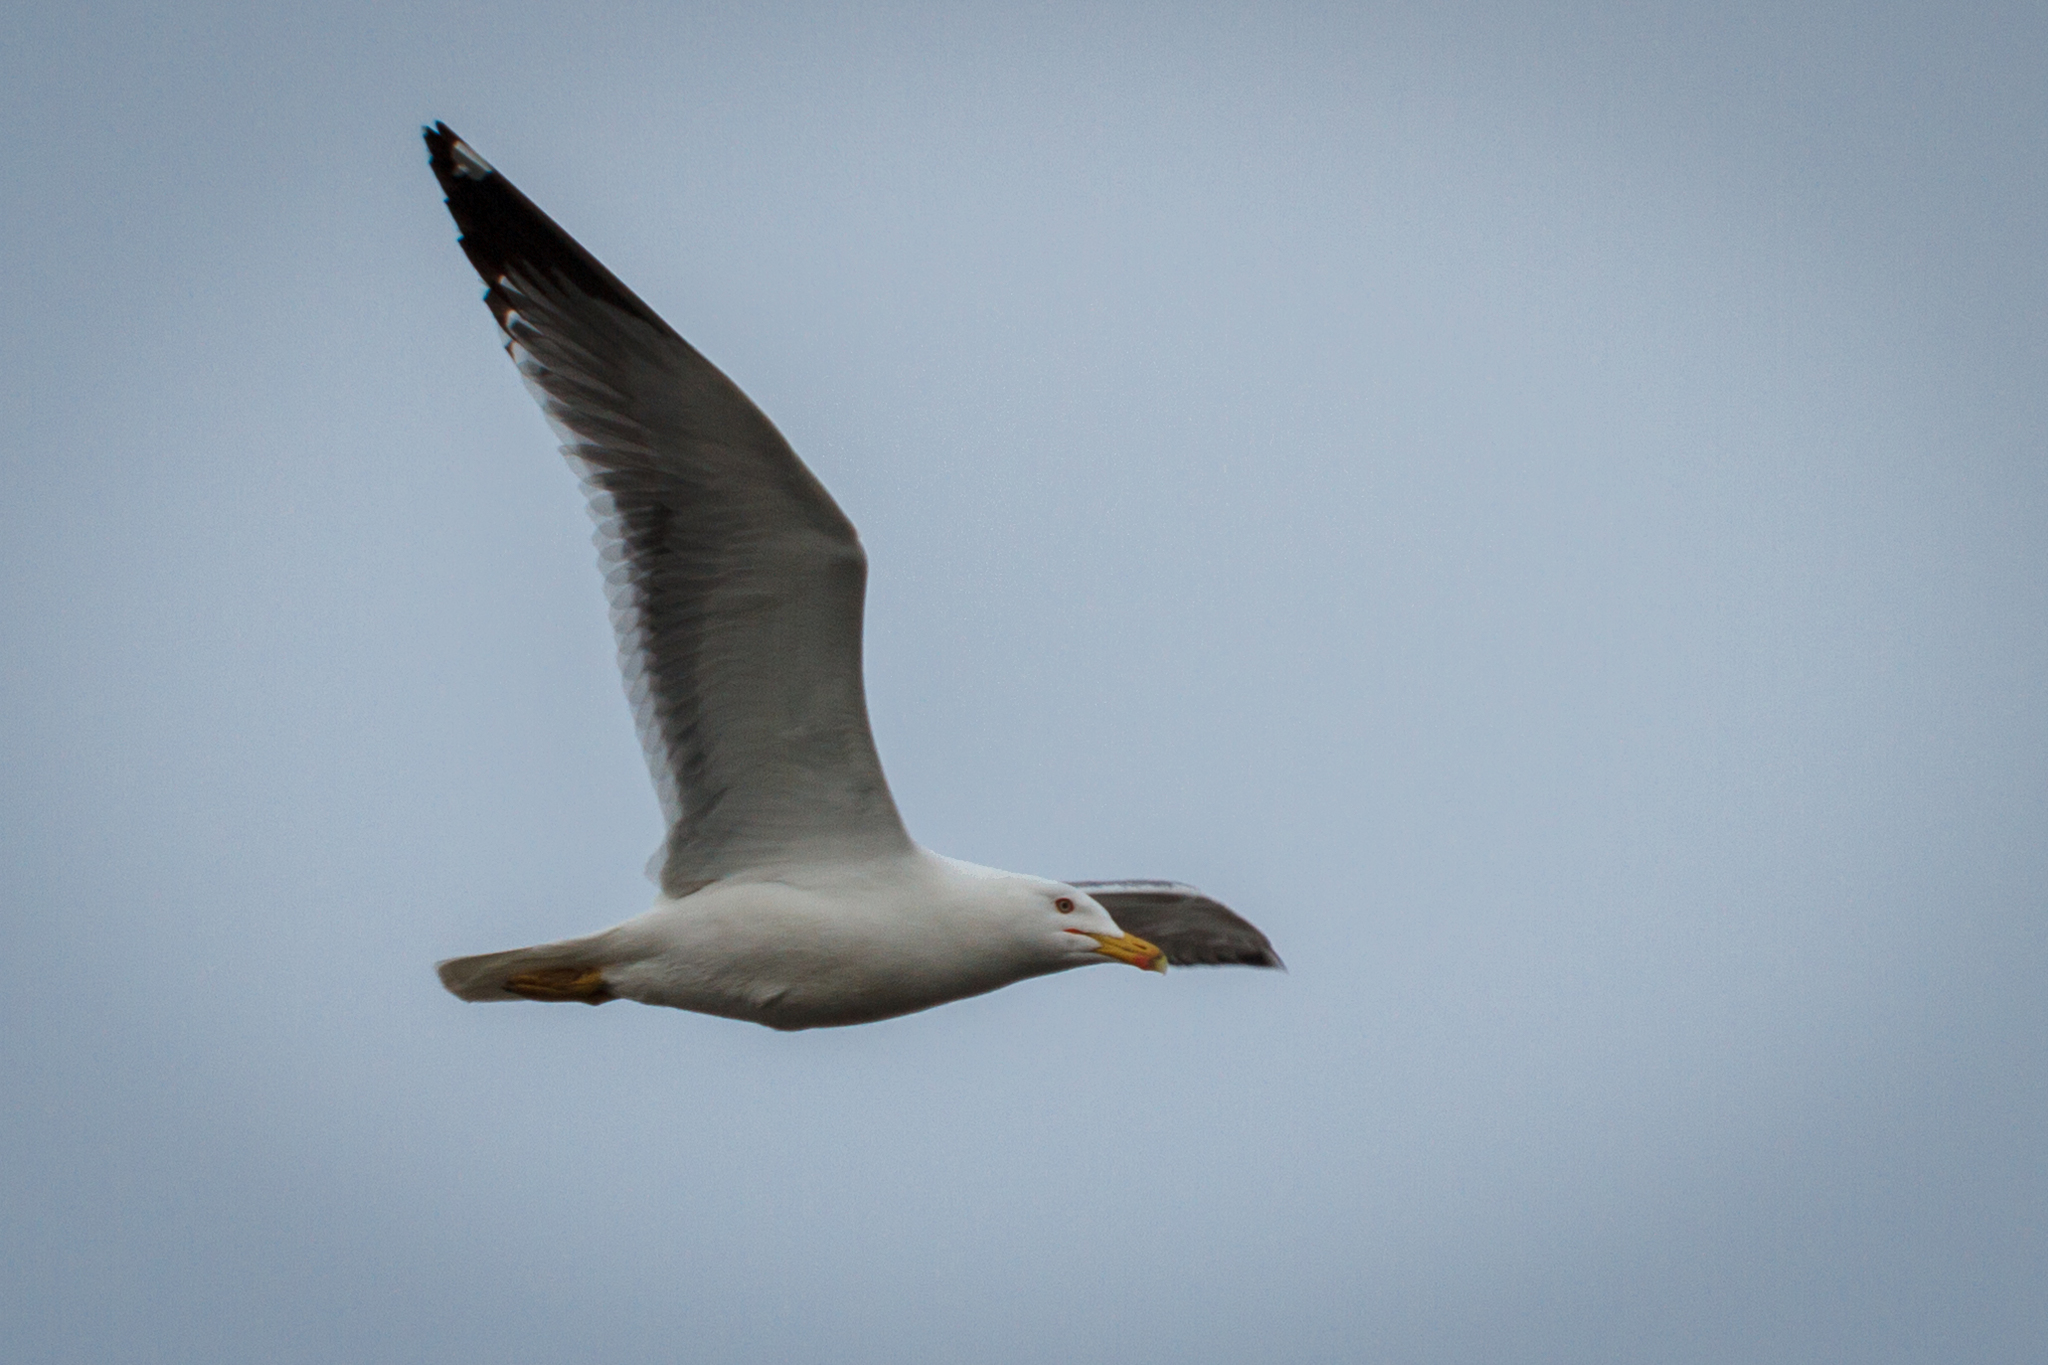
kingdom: Animalia
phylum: Chordata
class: Aves
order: Charadriiformes
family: Laridae
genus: Larus
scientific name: Larus fuscus
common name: Lesser black-backed gull
